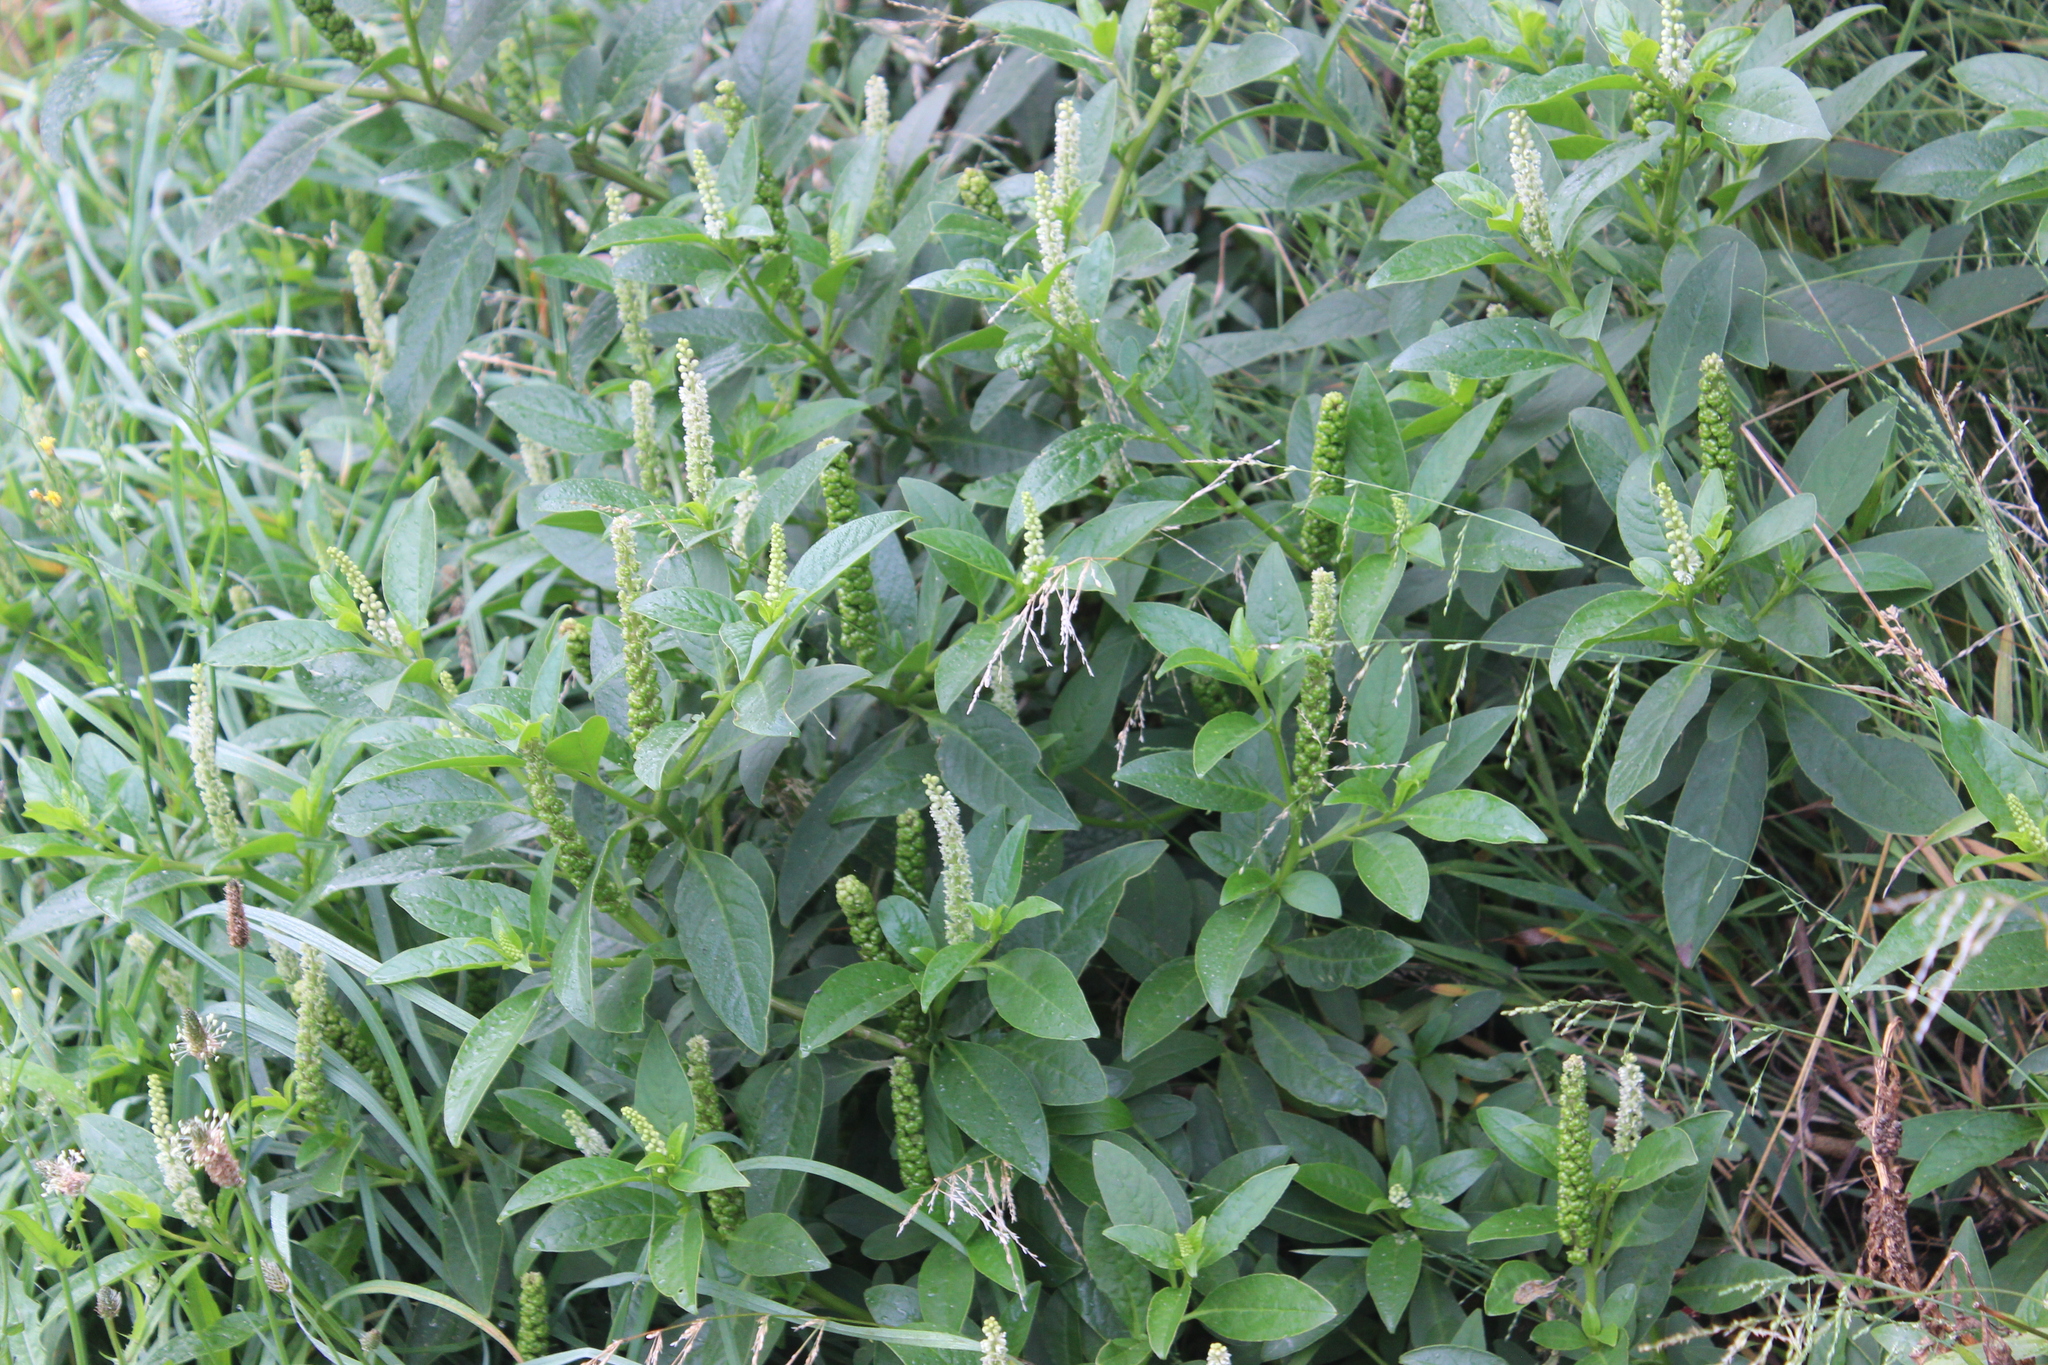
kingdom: Plantae
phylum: Tracheophyta
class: Magnoliopsida
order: Caryophyllales
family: Phytolaccaceae
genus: Phytolacca
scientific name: Phytolacca icosandra
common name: Button pokeweed
